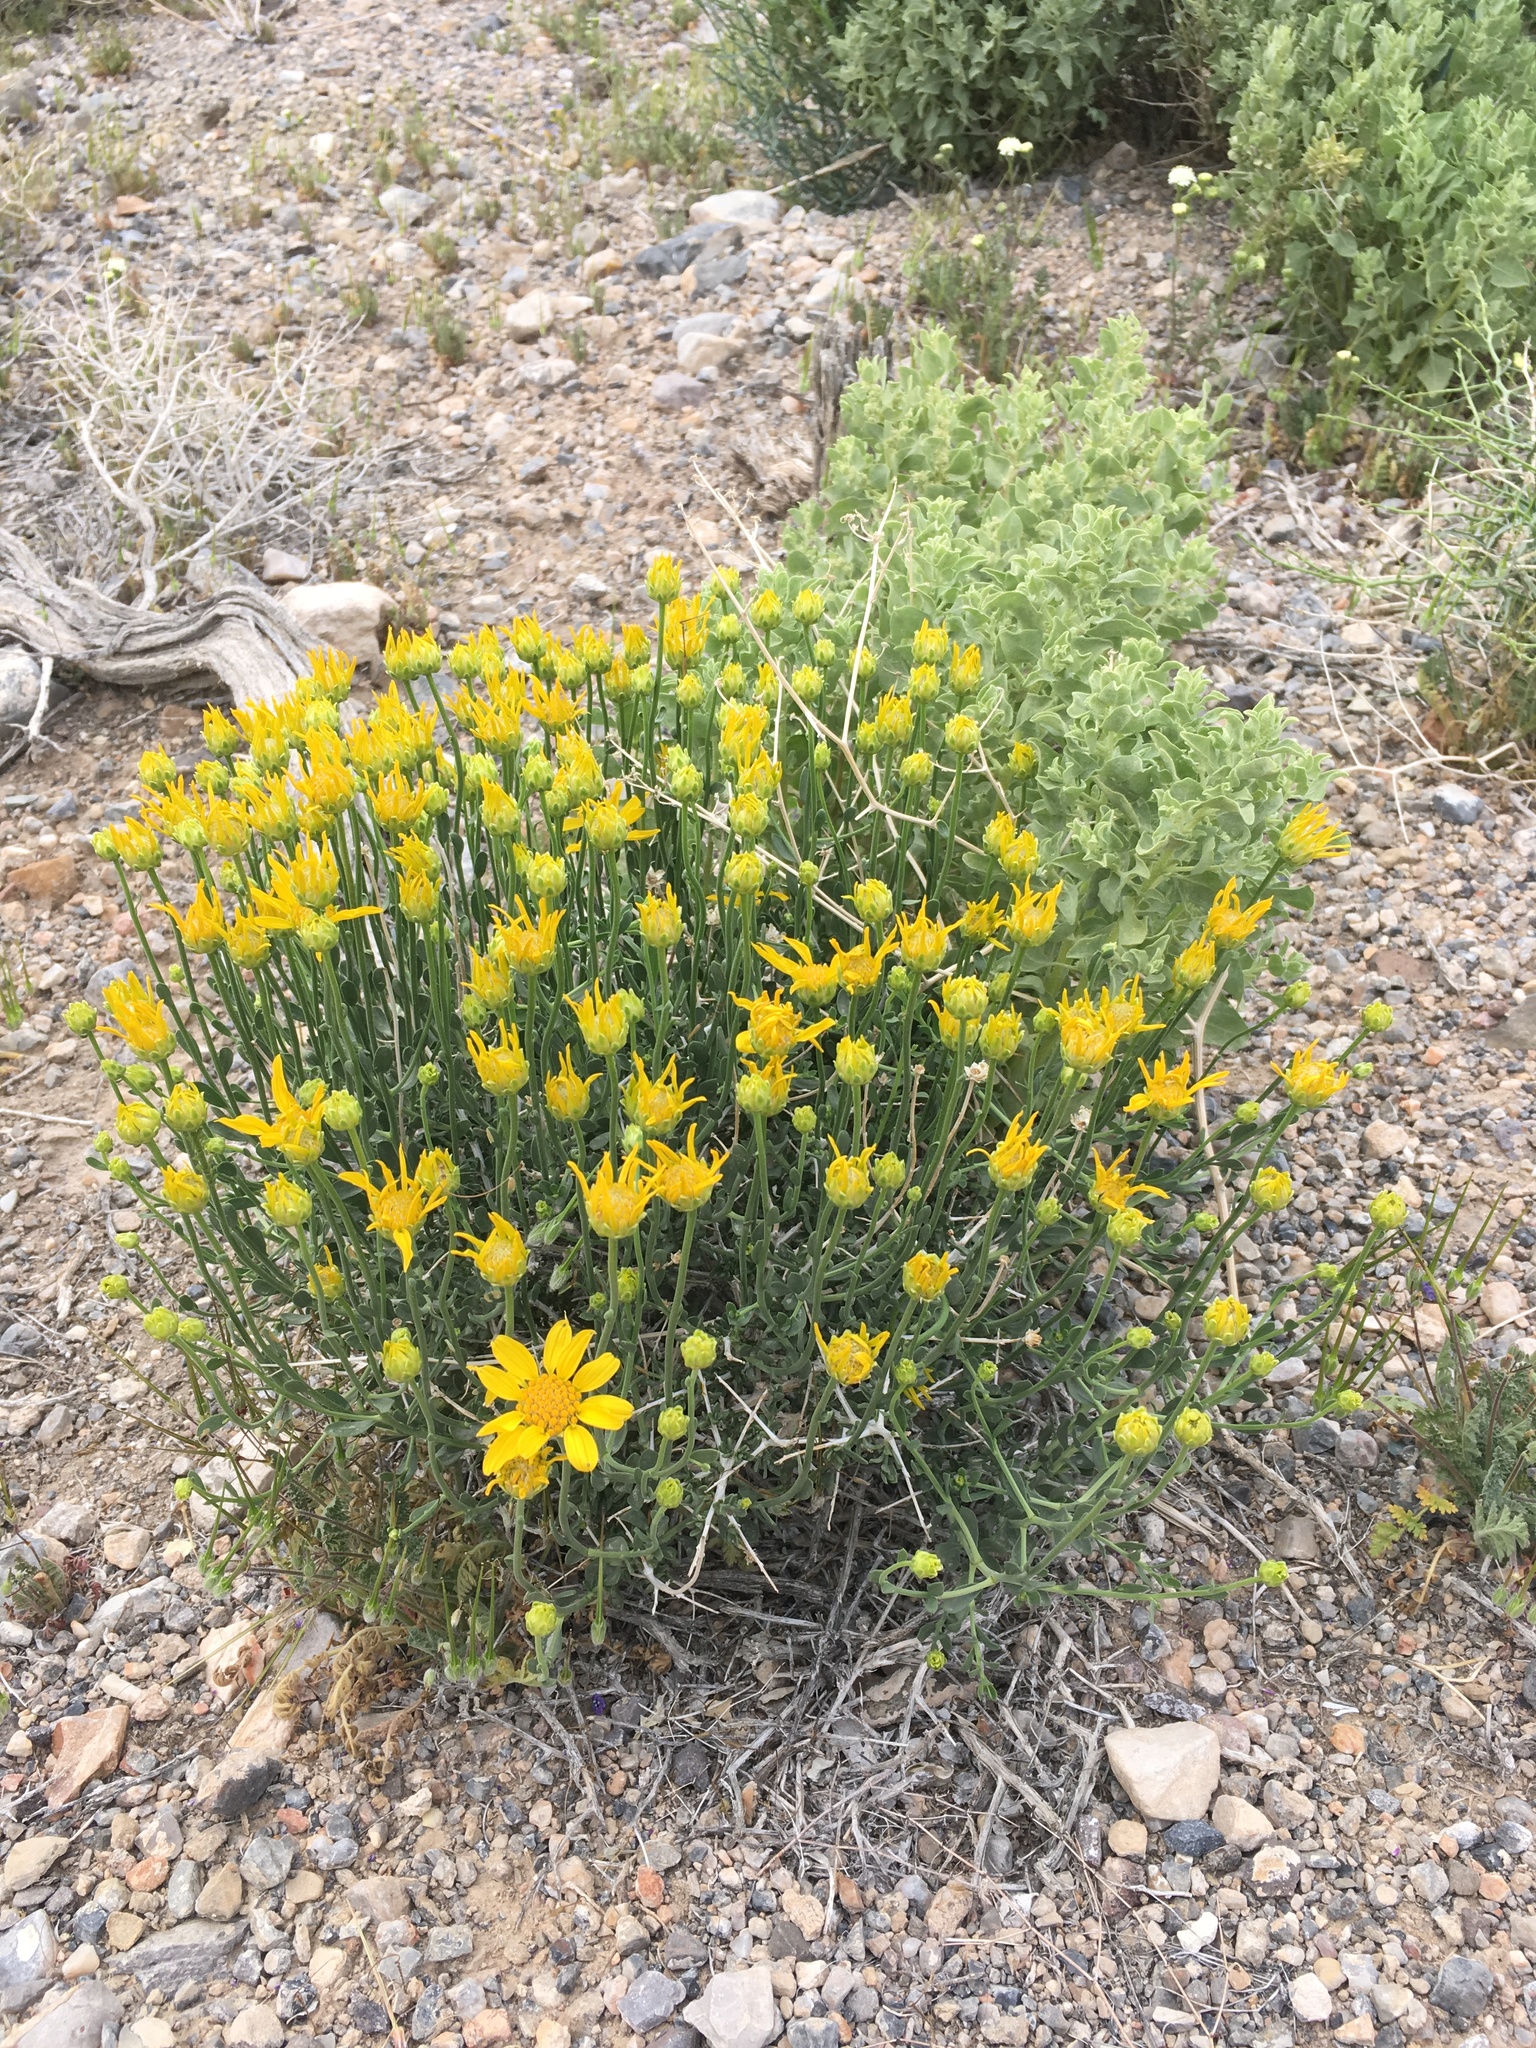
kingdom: Plantae
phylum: Tracheophyta
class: Magnoliopsida
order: Asterales
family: Asteraceae
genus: Acamptopappus
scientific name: Acamptopappus shockleyi
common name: Shockley's goldenhead
